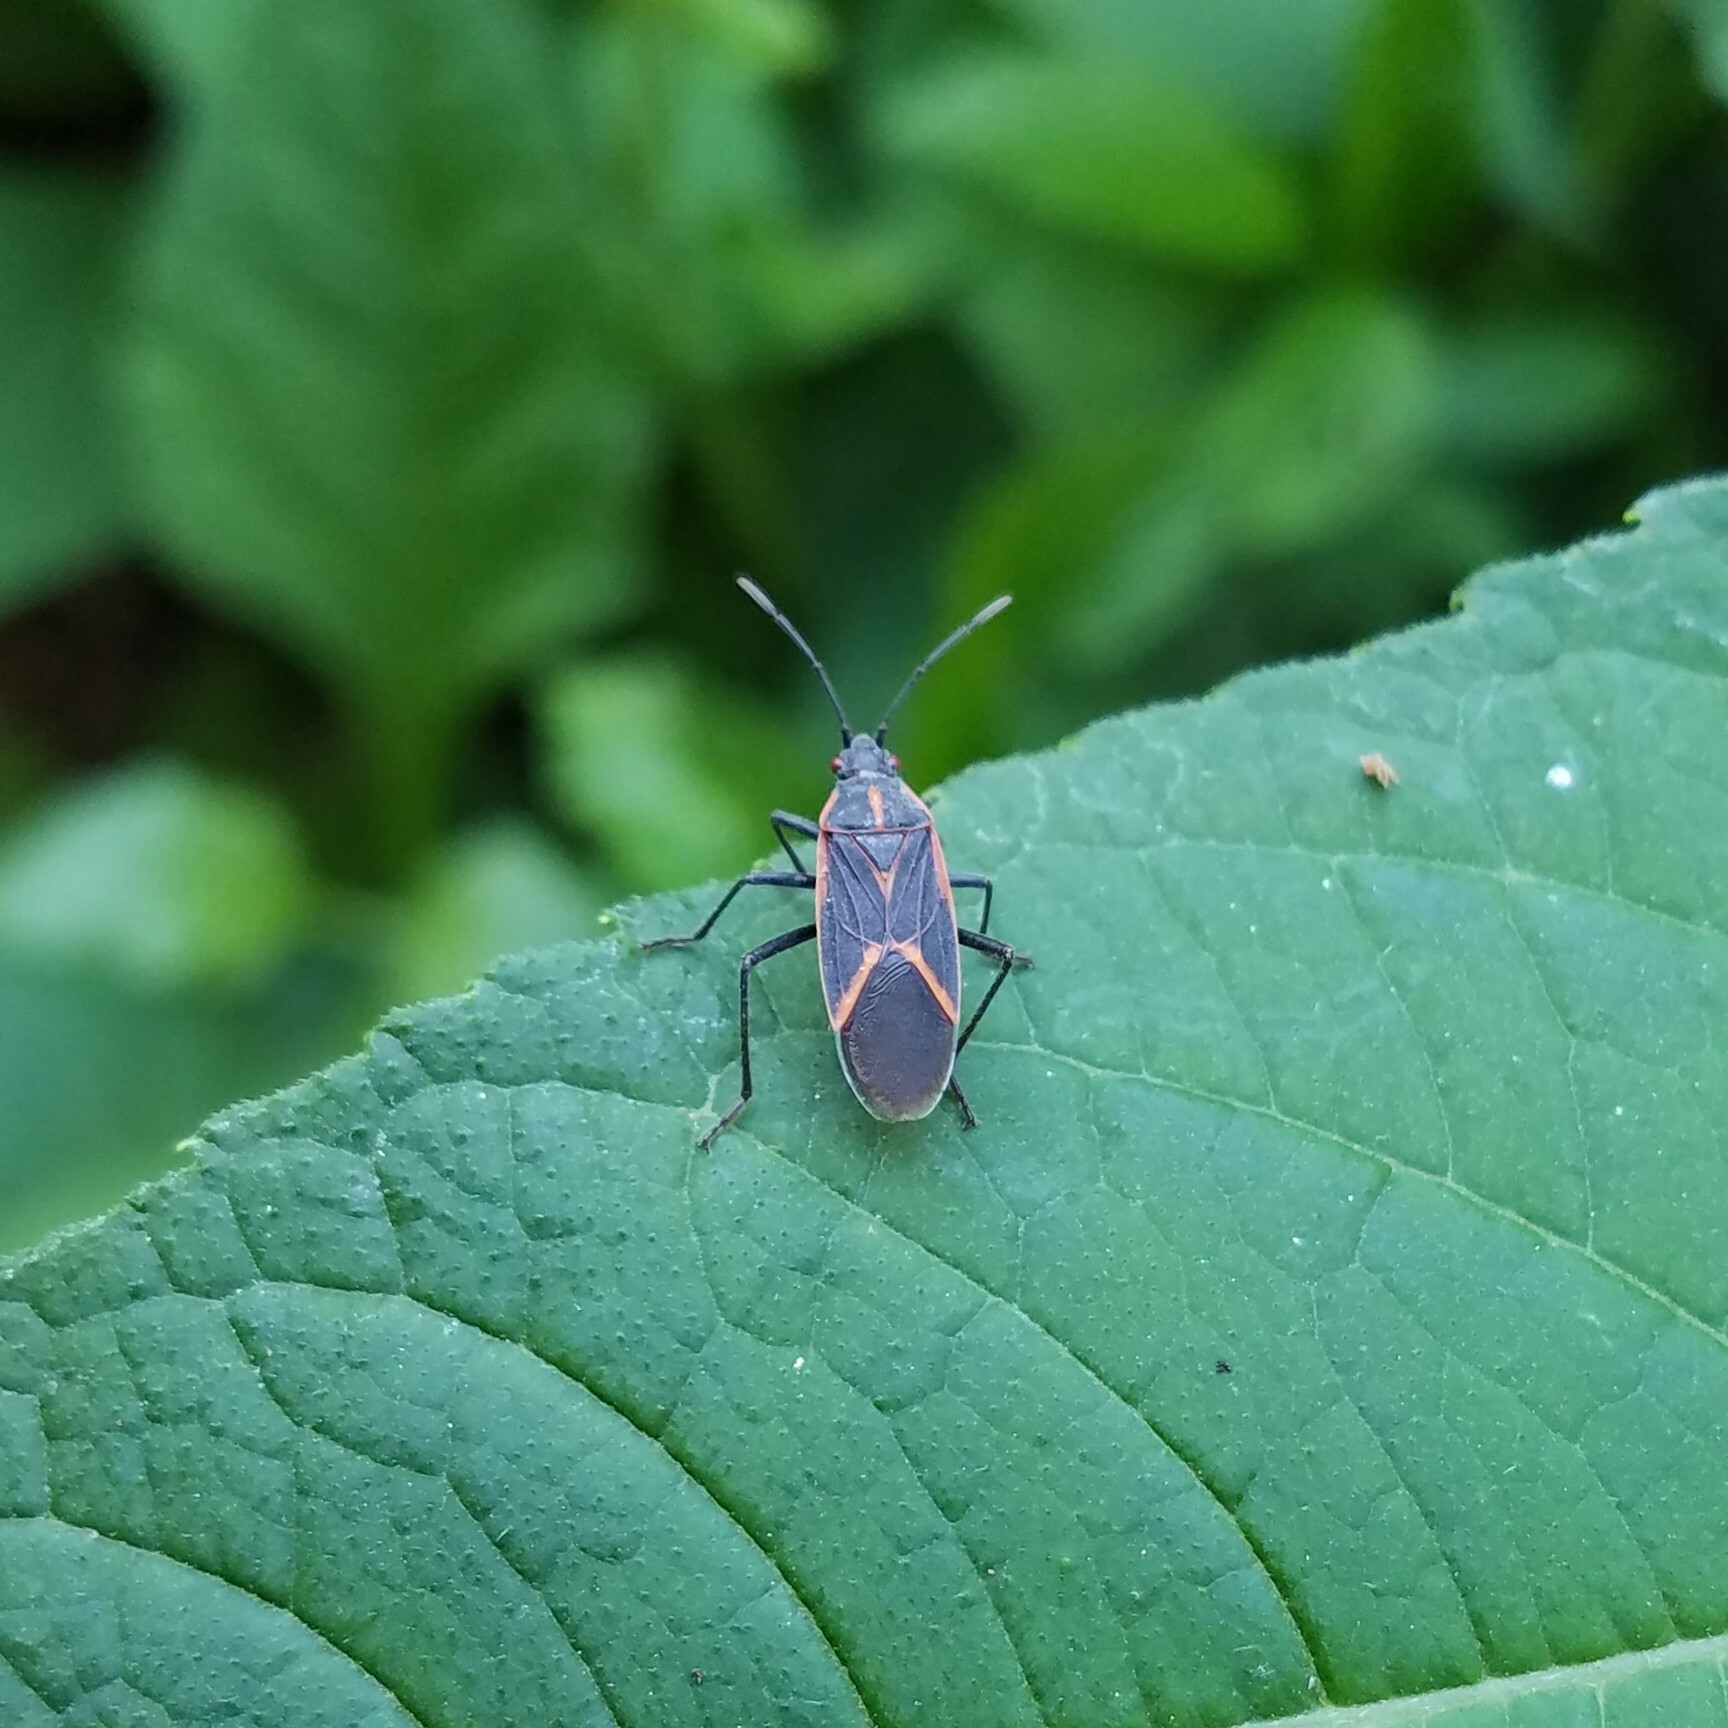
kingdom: Animalia
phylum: Arthropoda
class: Insecta
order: Hemiptera
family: Rhopalidae
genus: Boisea
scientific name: Boisea trivittata
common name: Boxelder bug
